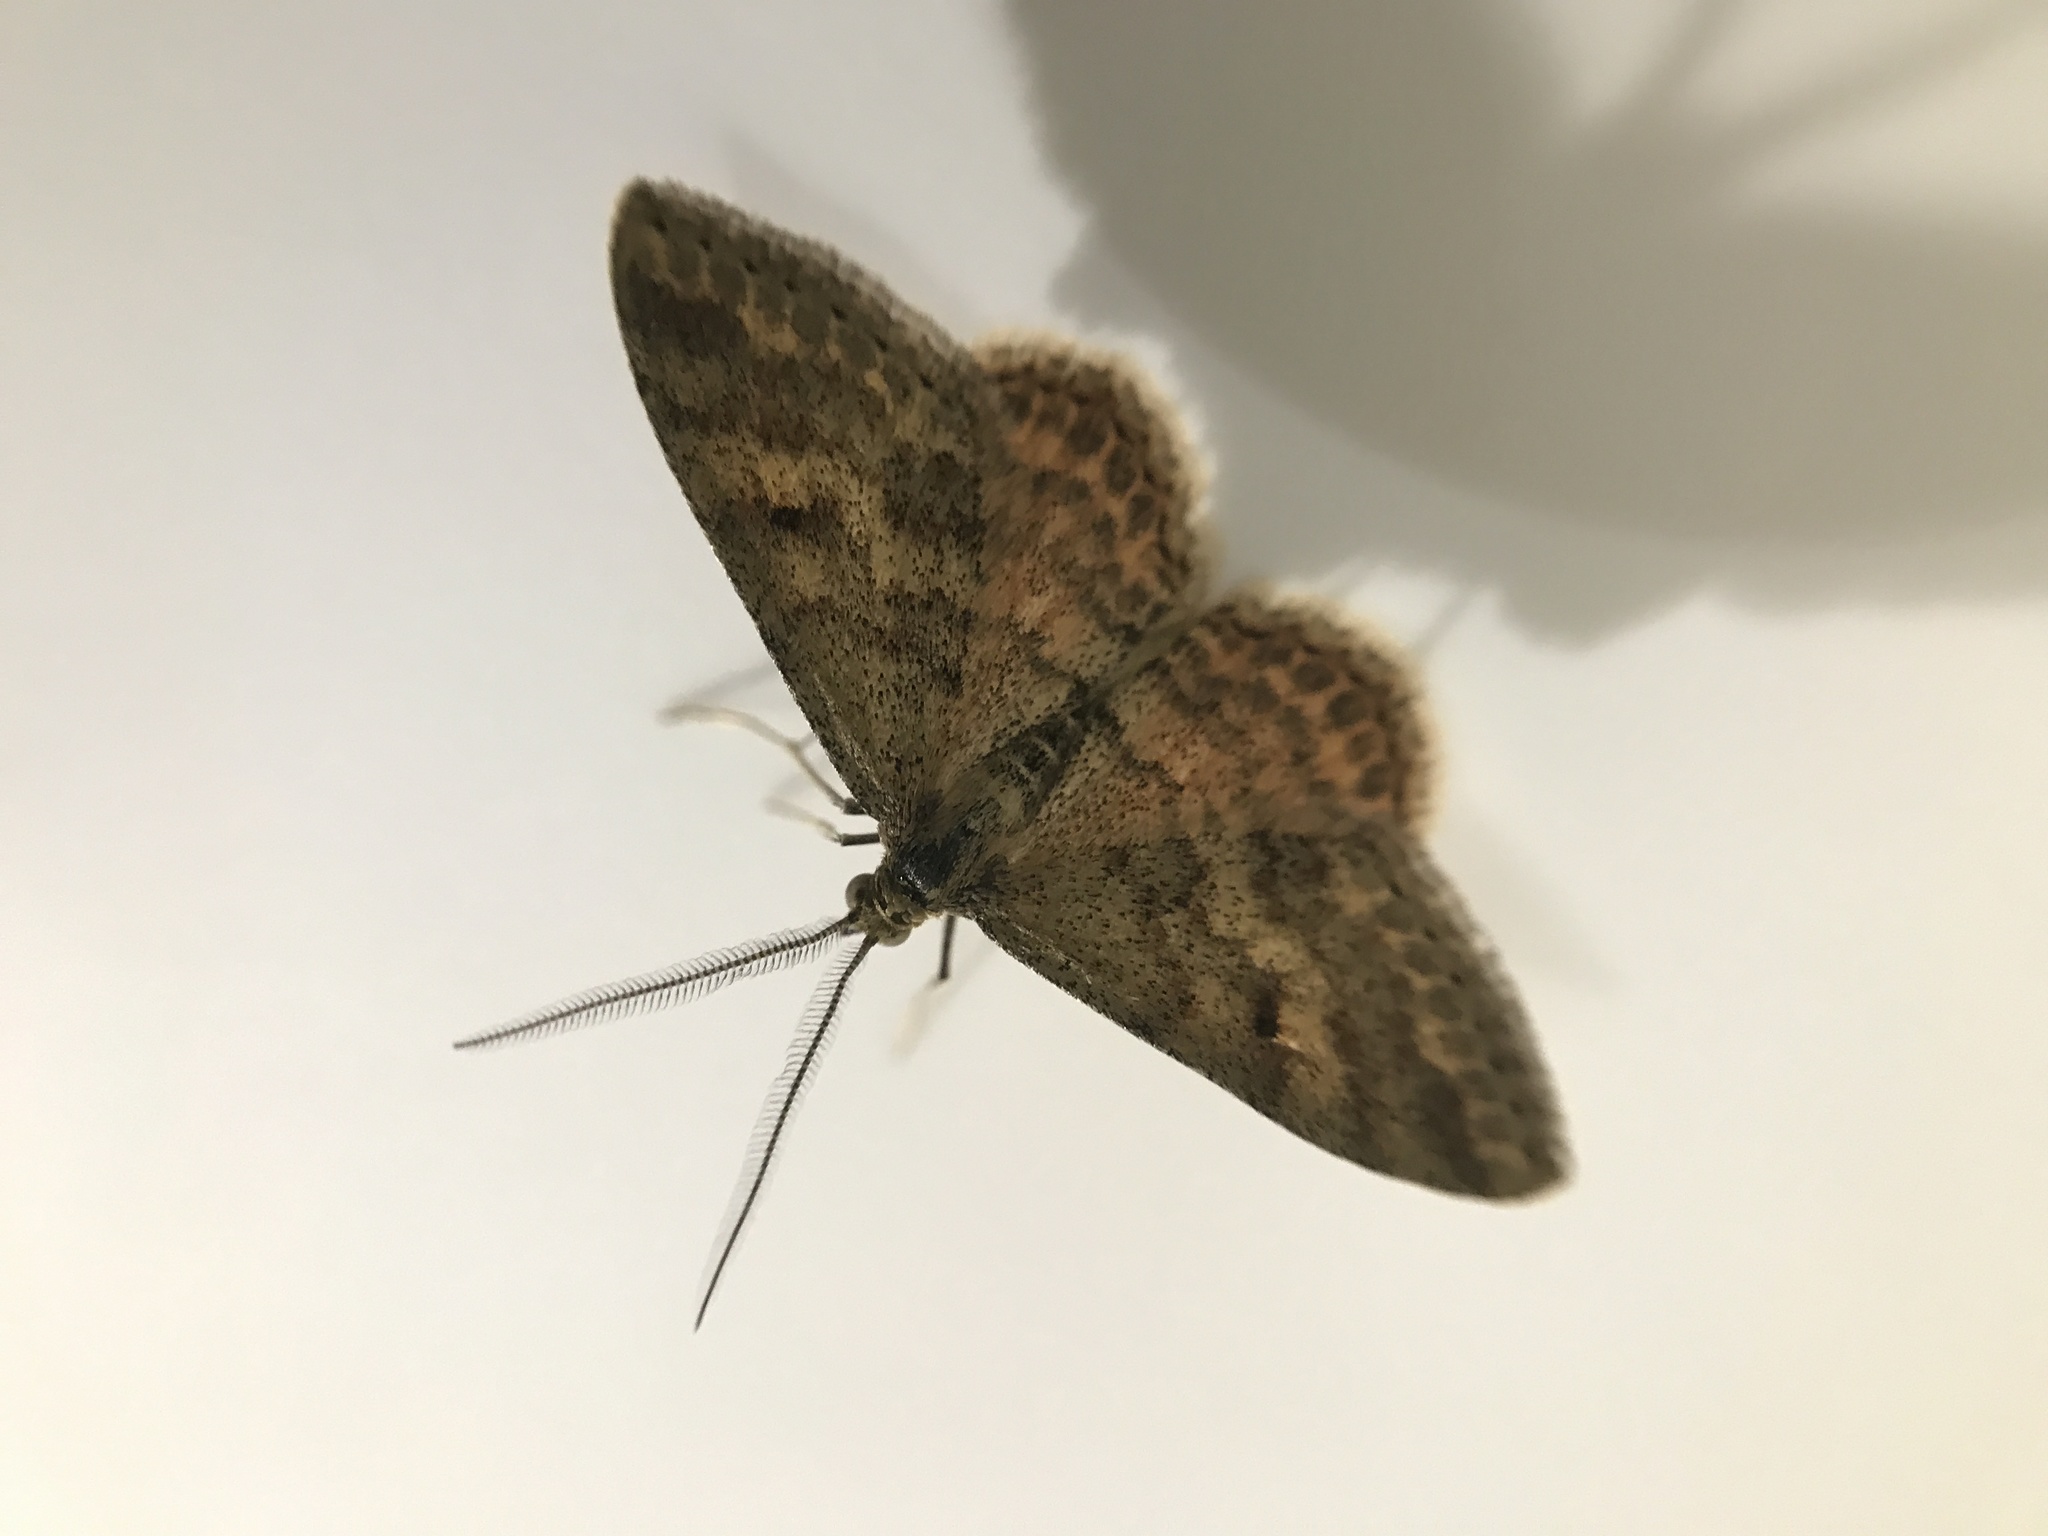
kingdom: Animalia
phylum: Arthropoda
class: Insecta
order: Lepidoptera
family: Geometridae
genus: Scopula
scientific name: Scopula rubraria
